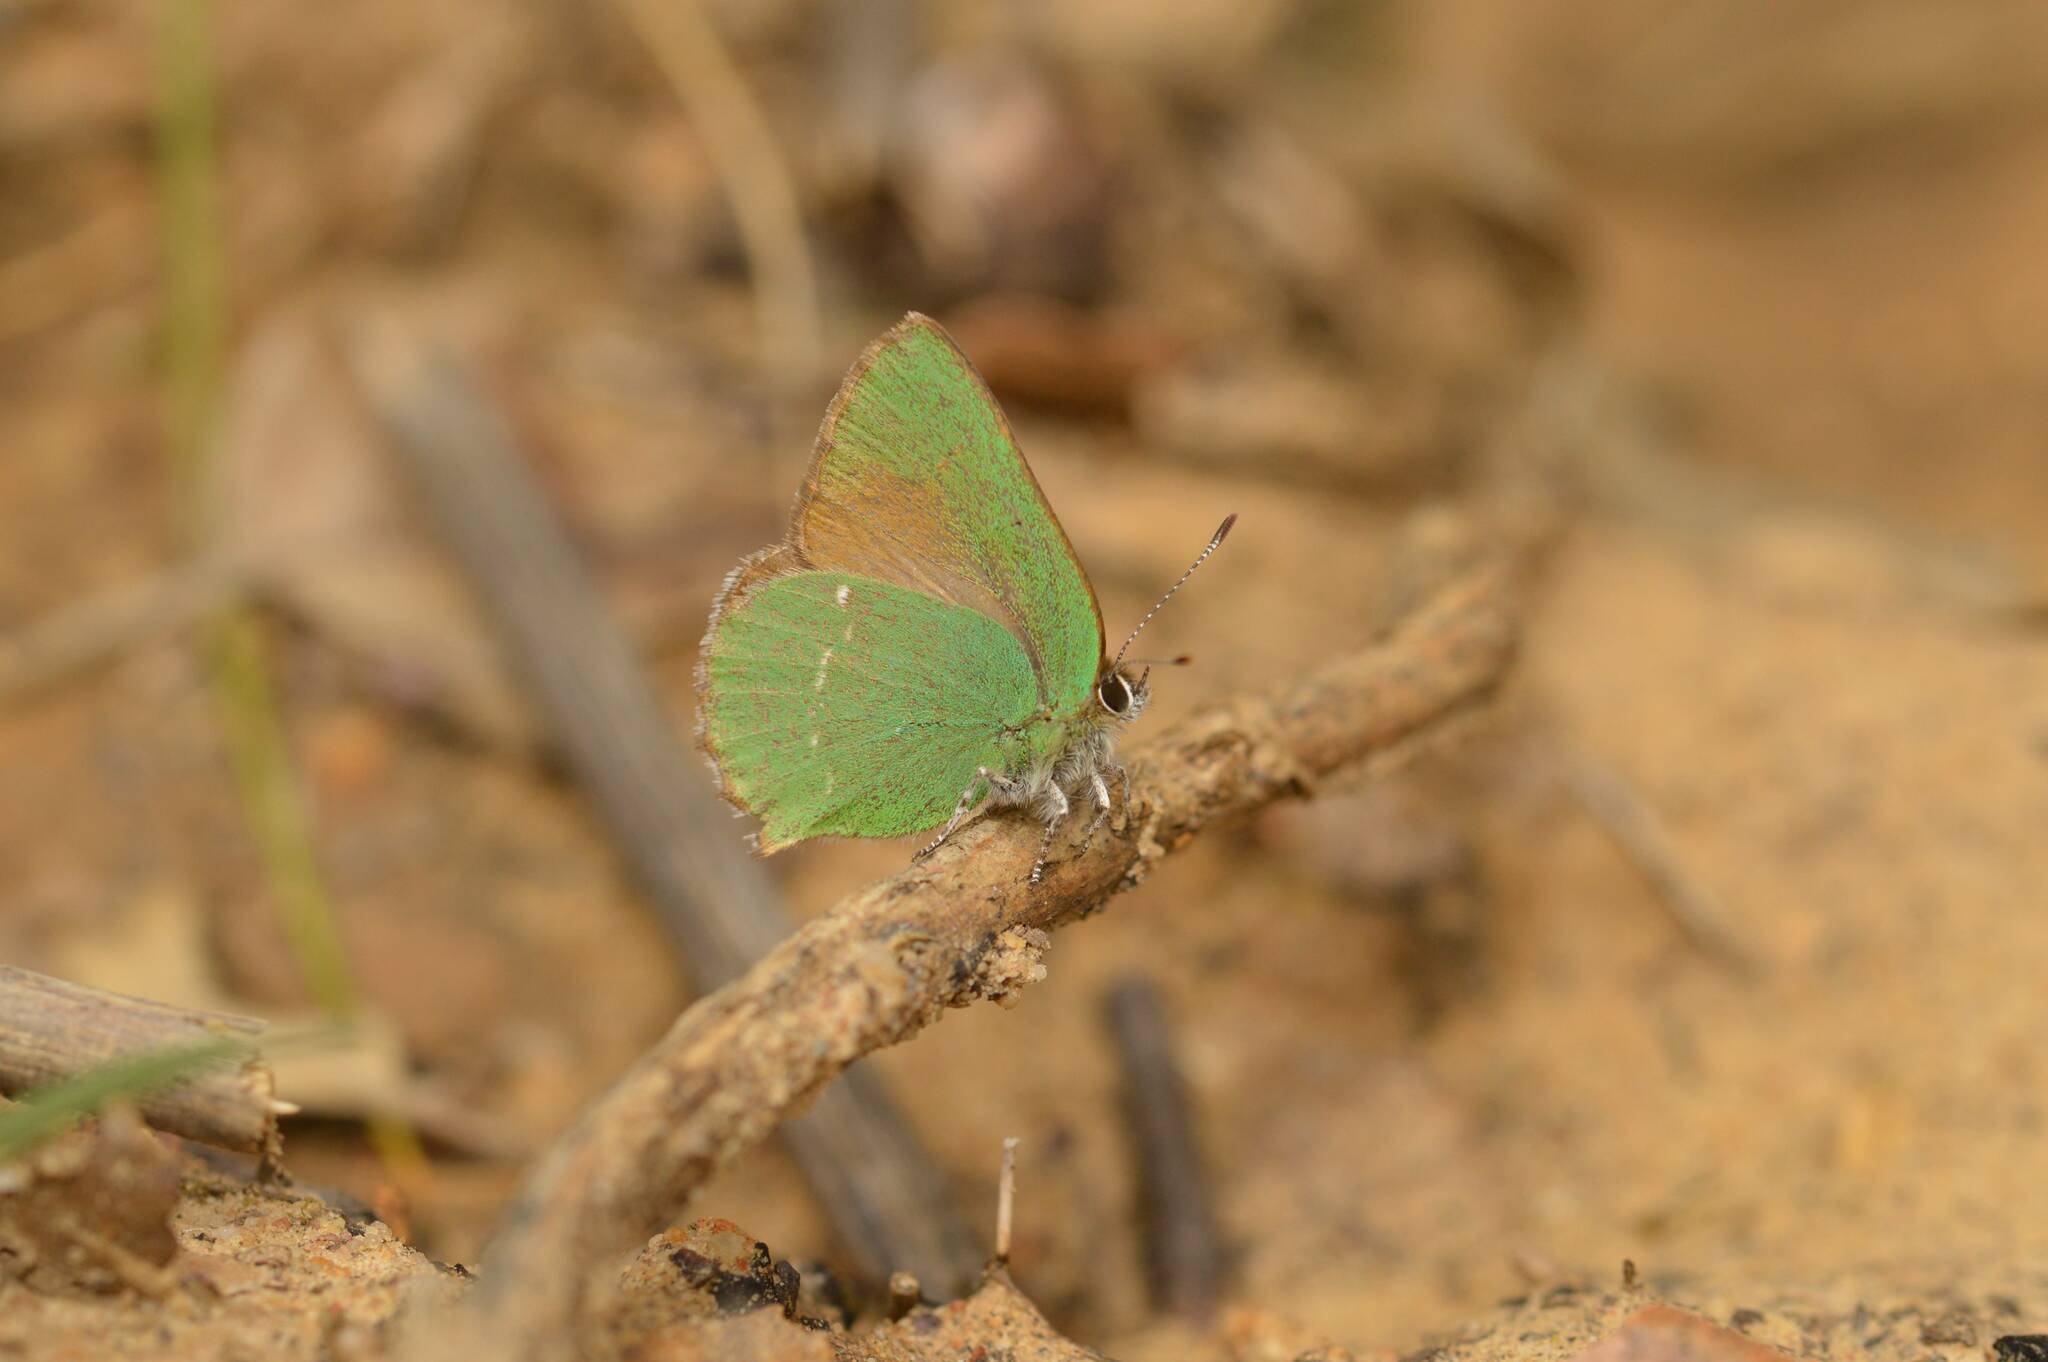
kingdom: Animalia
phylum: Arthropoda
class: Insecta
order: Lepidoptera
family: Lycaenidae
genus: Callophrys
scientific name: Callophrys rubi
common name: Green hairstreak
